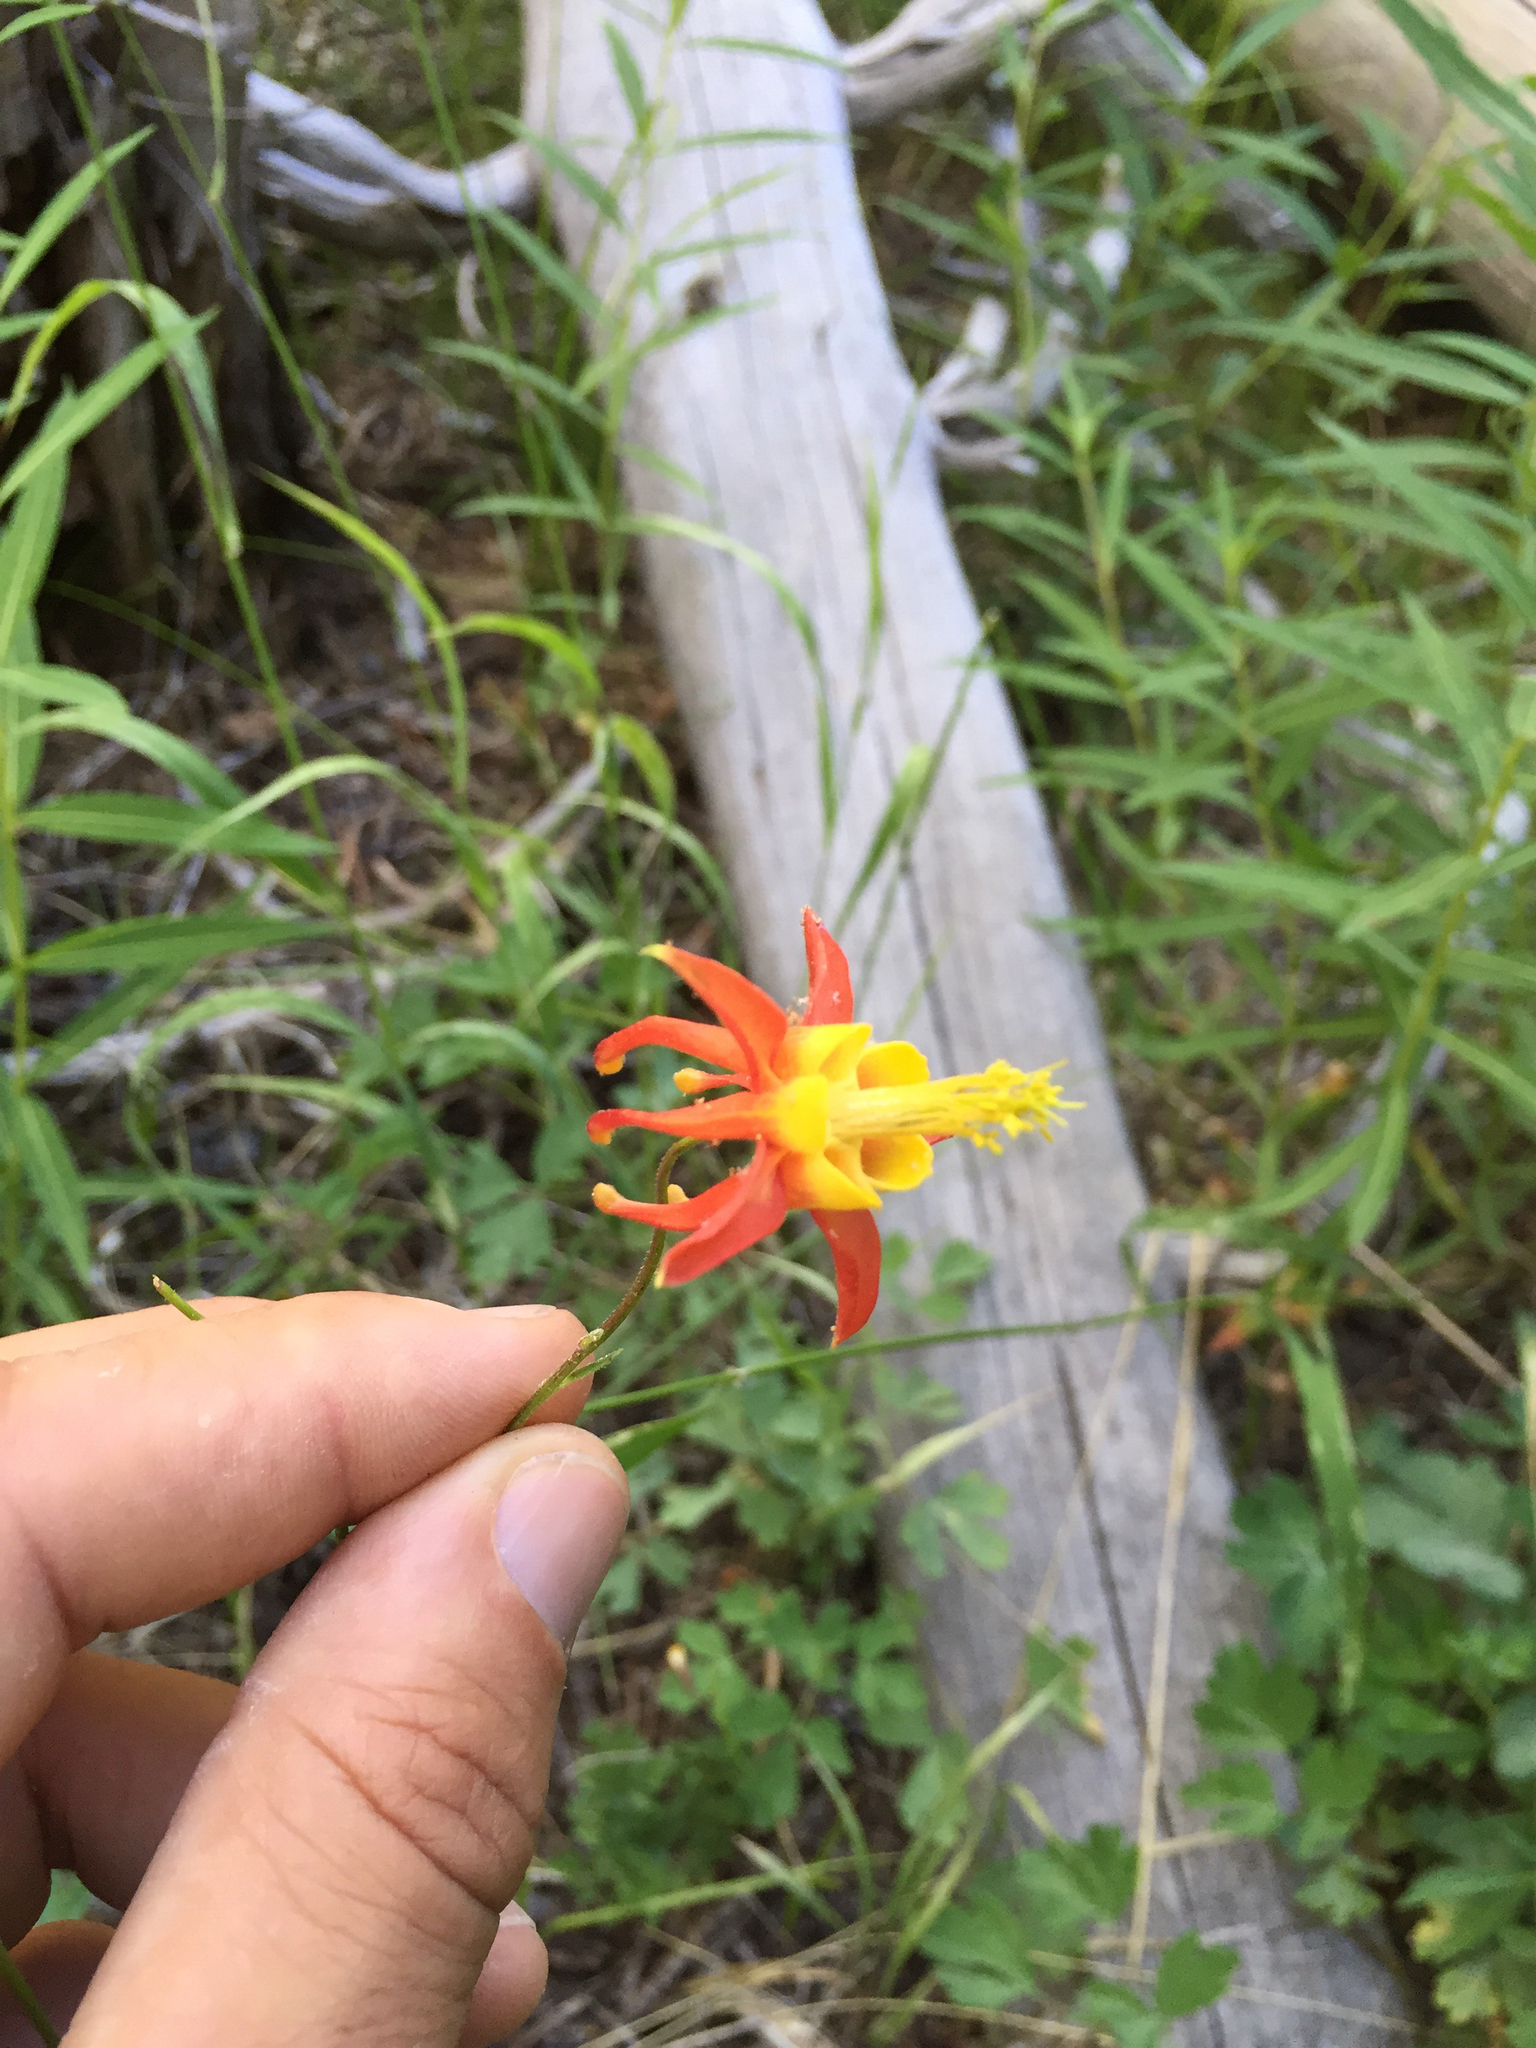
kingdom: Plantae
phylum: Tracheophyta
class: Magnoliopsida
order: Ranunculales
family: Ranunculaceae
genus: Aquilegia
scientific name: Aquilegia formosa
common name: Sitka columbine
